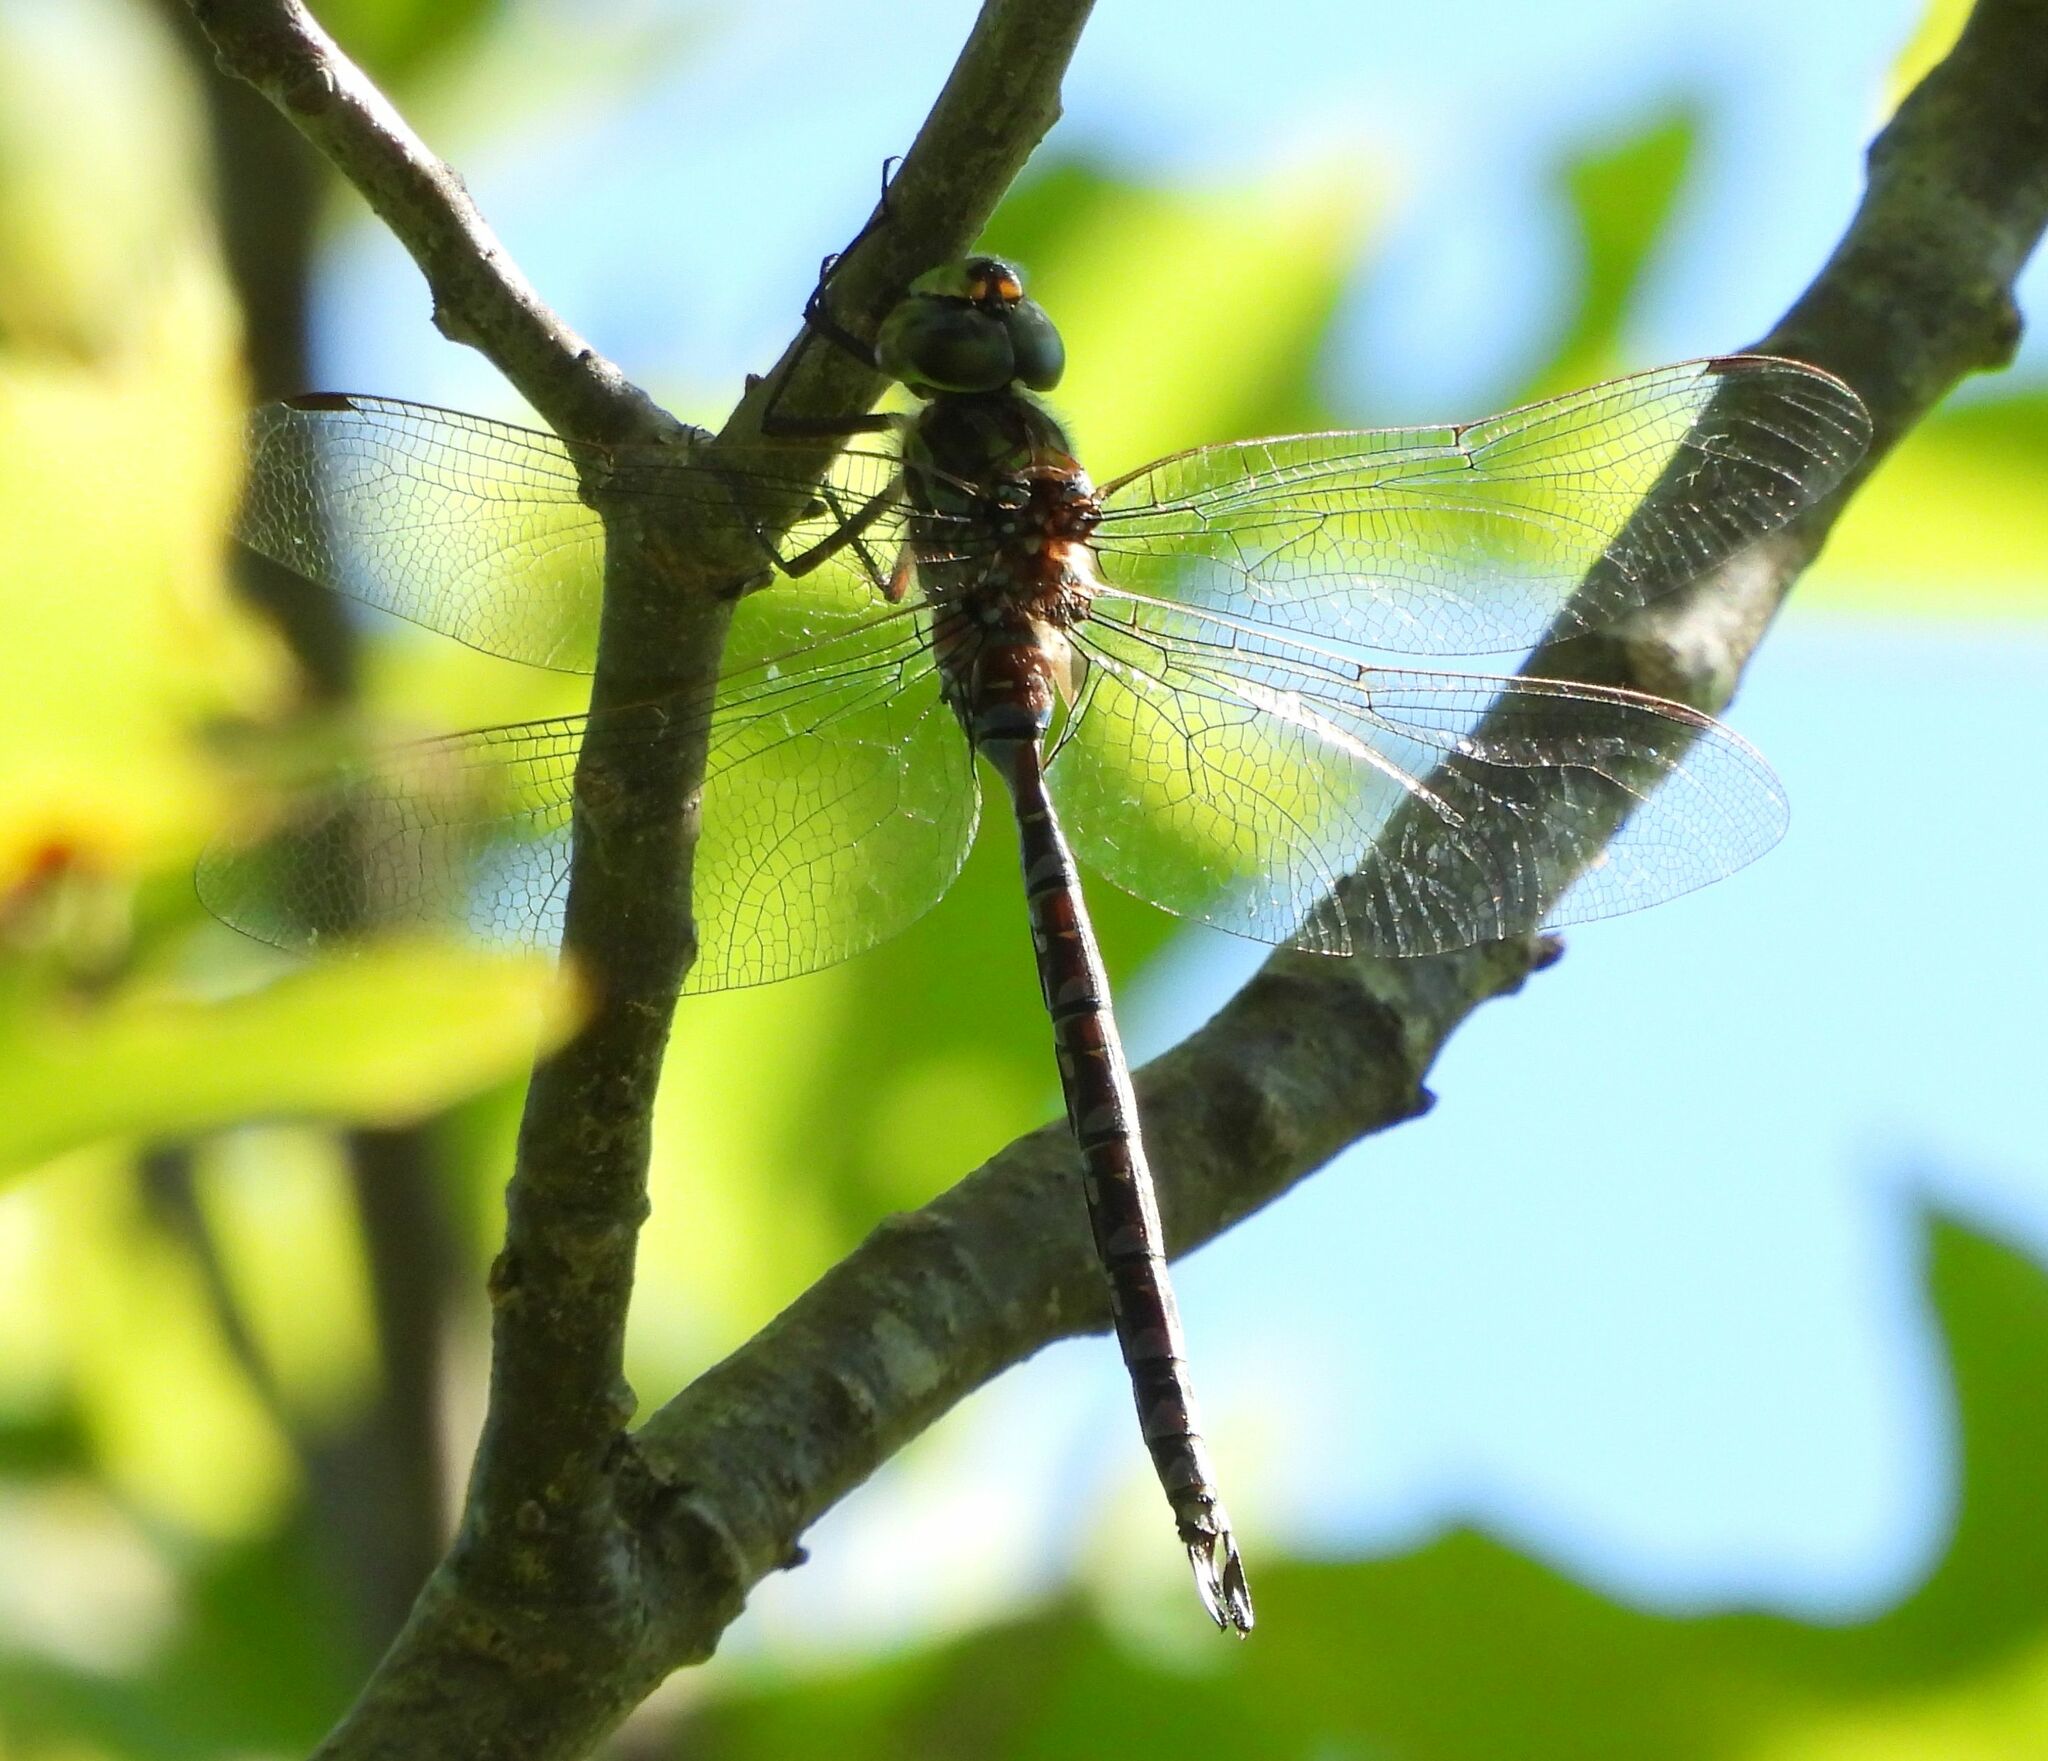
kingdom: Animalia
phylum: Arthropoda
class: Insecta
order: Odonata
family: Aeshnidae
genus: Aeshna
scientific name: Aeshna canadensis
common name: Canada darner
